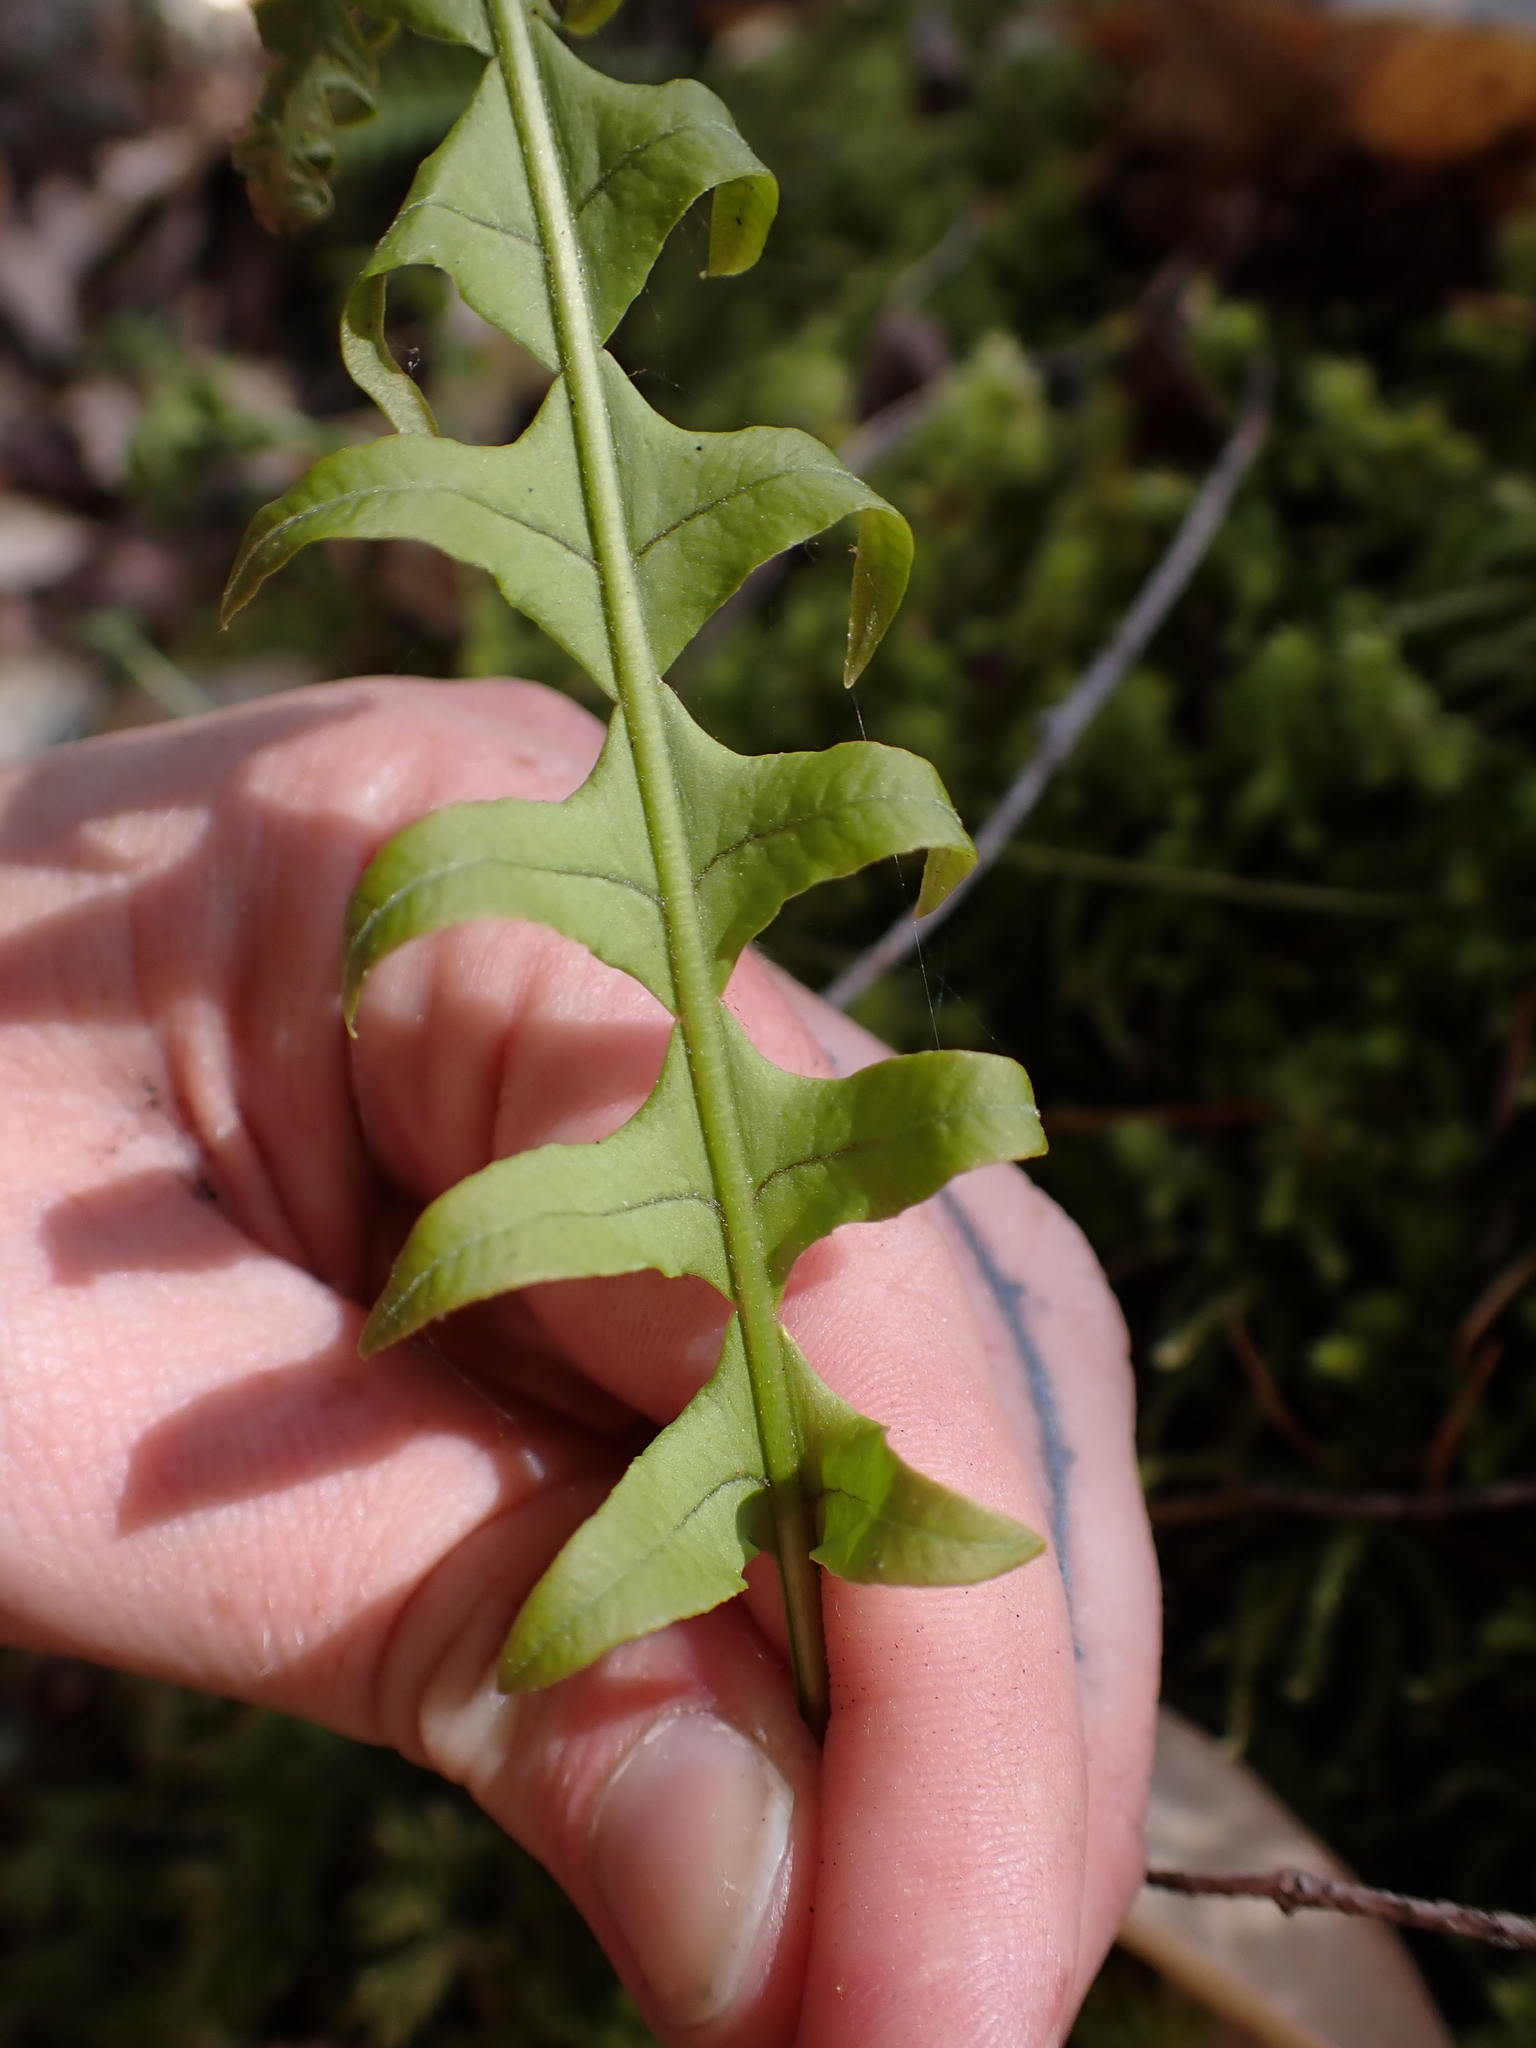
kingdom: Plantae
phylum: Tracheophyta
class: Polypodiopsida
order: Polypodiales
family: Polypodiaceae
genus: Polypodium
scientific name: Polypodium glycyrrhiza
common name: Licorice fern
